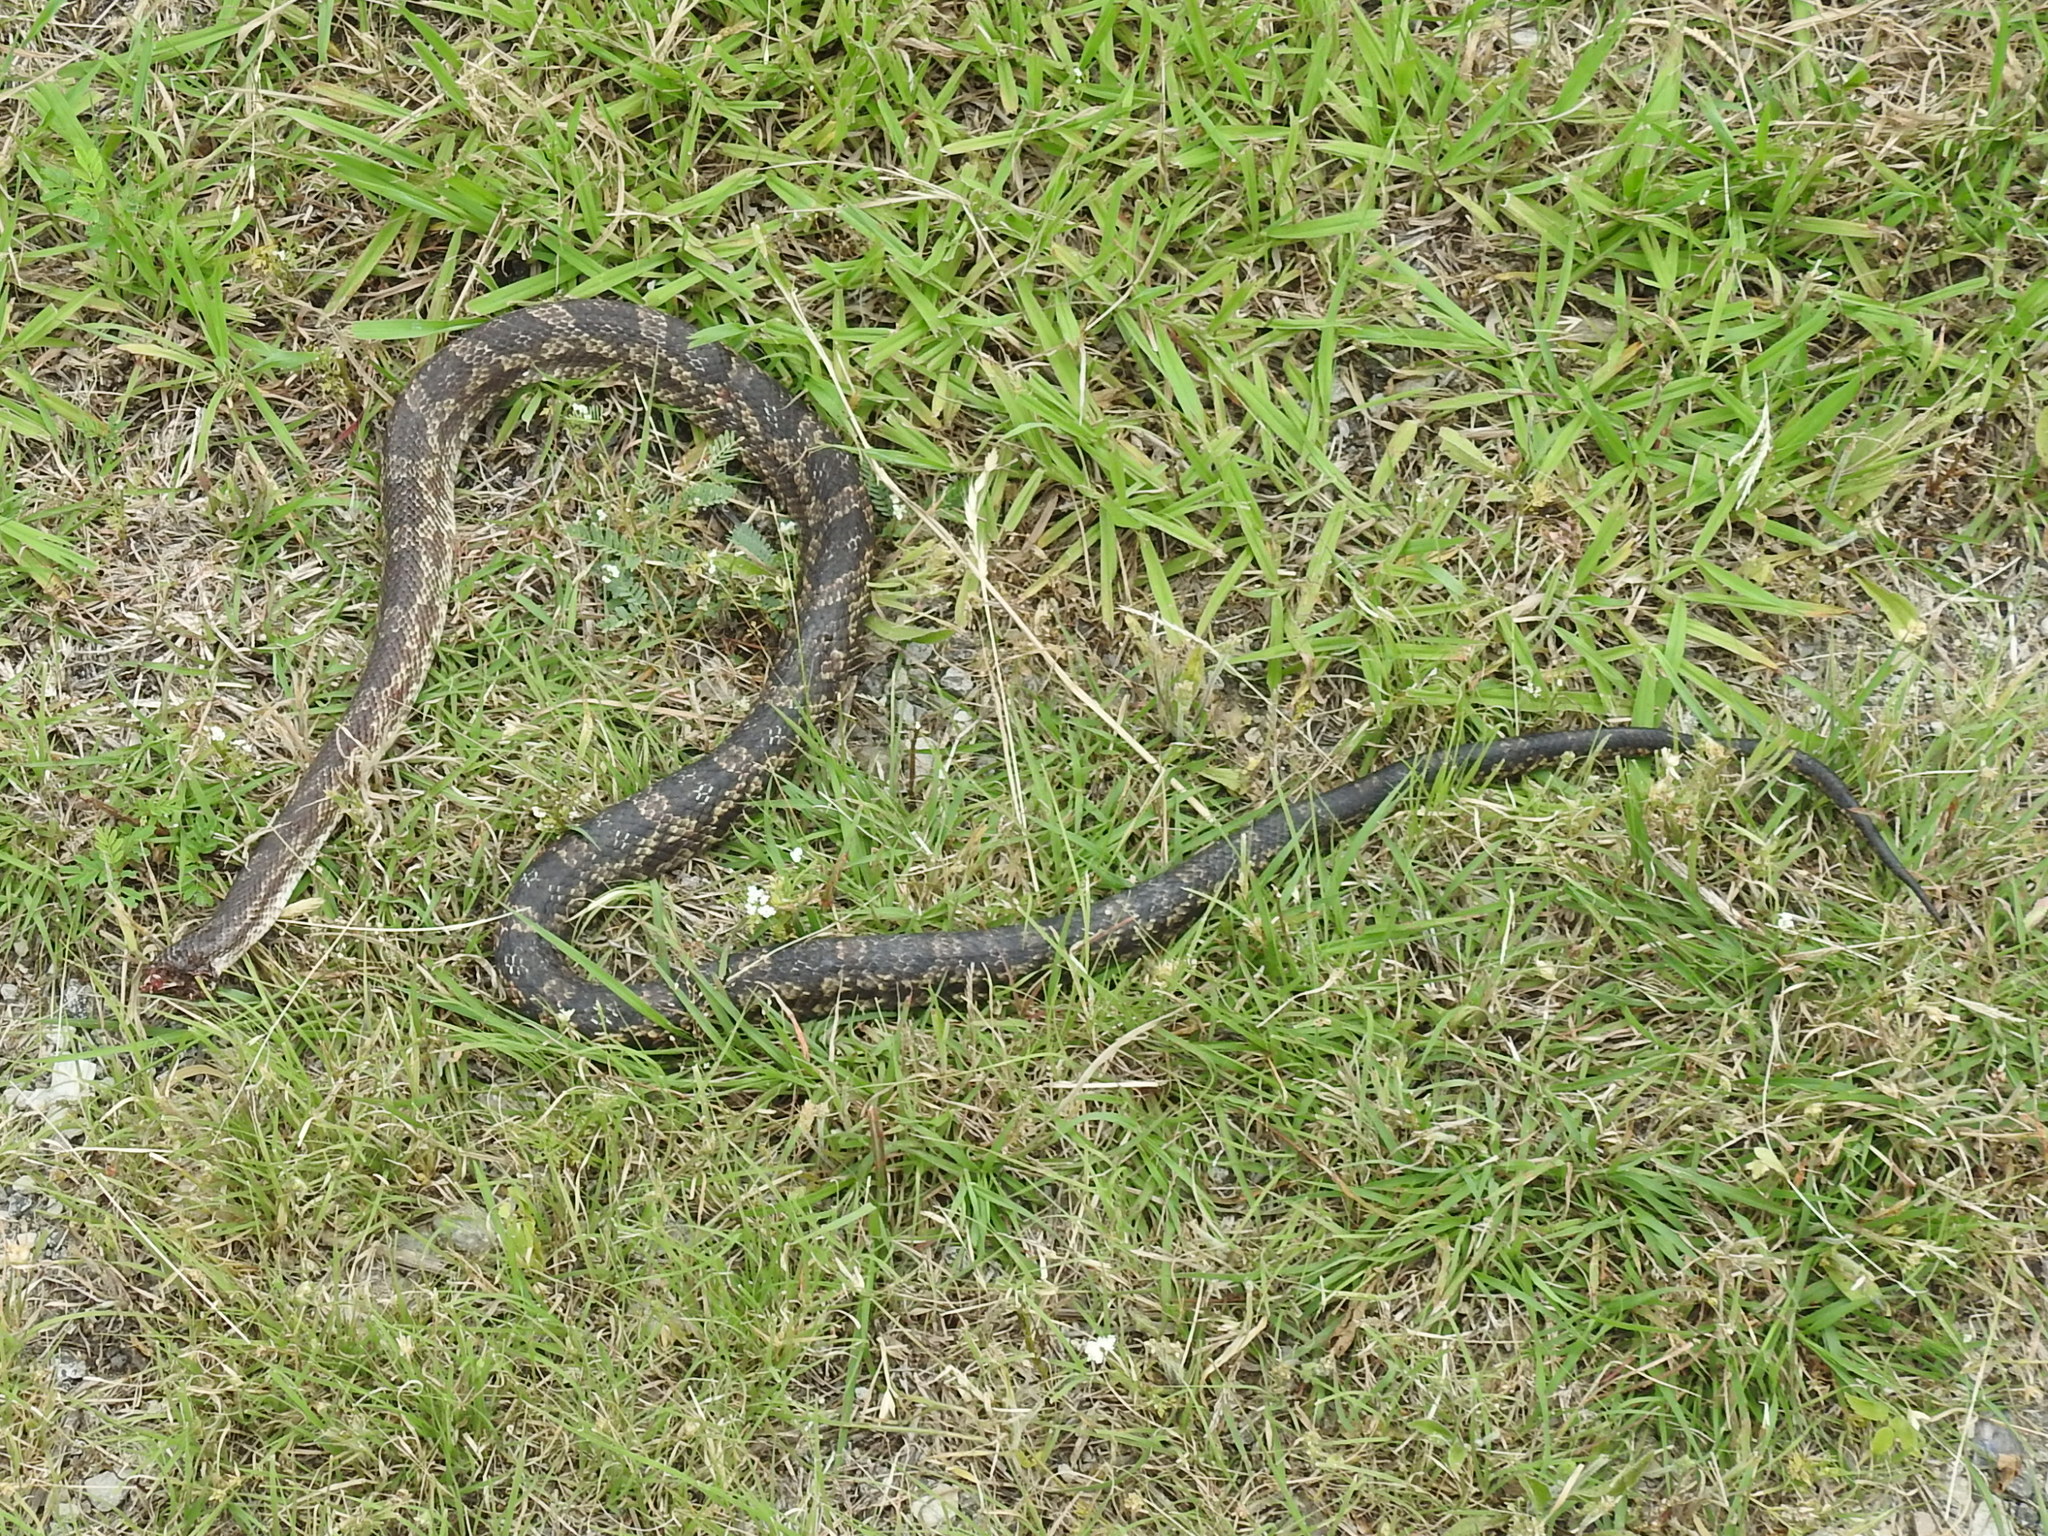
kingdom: Animalia
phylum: Chordata
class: Squamata
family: Colubridae
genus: Pantherophis
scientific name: Pantherophis obsoletus
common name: Black rat snake
